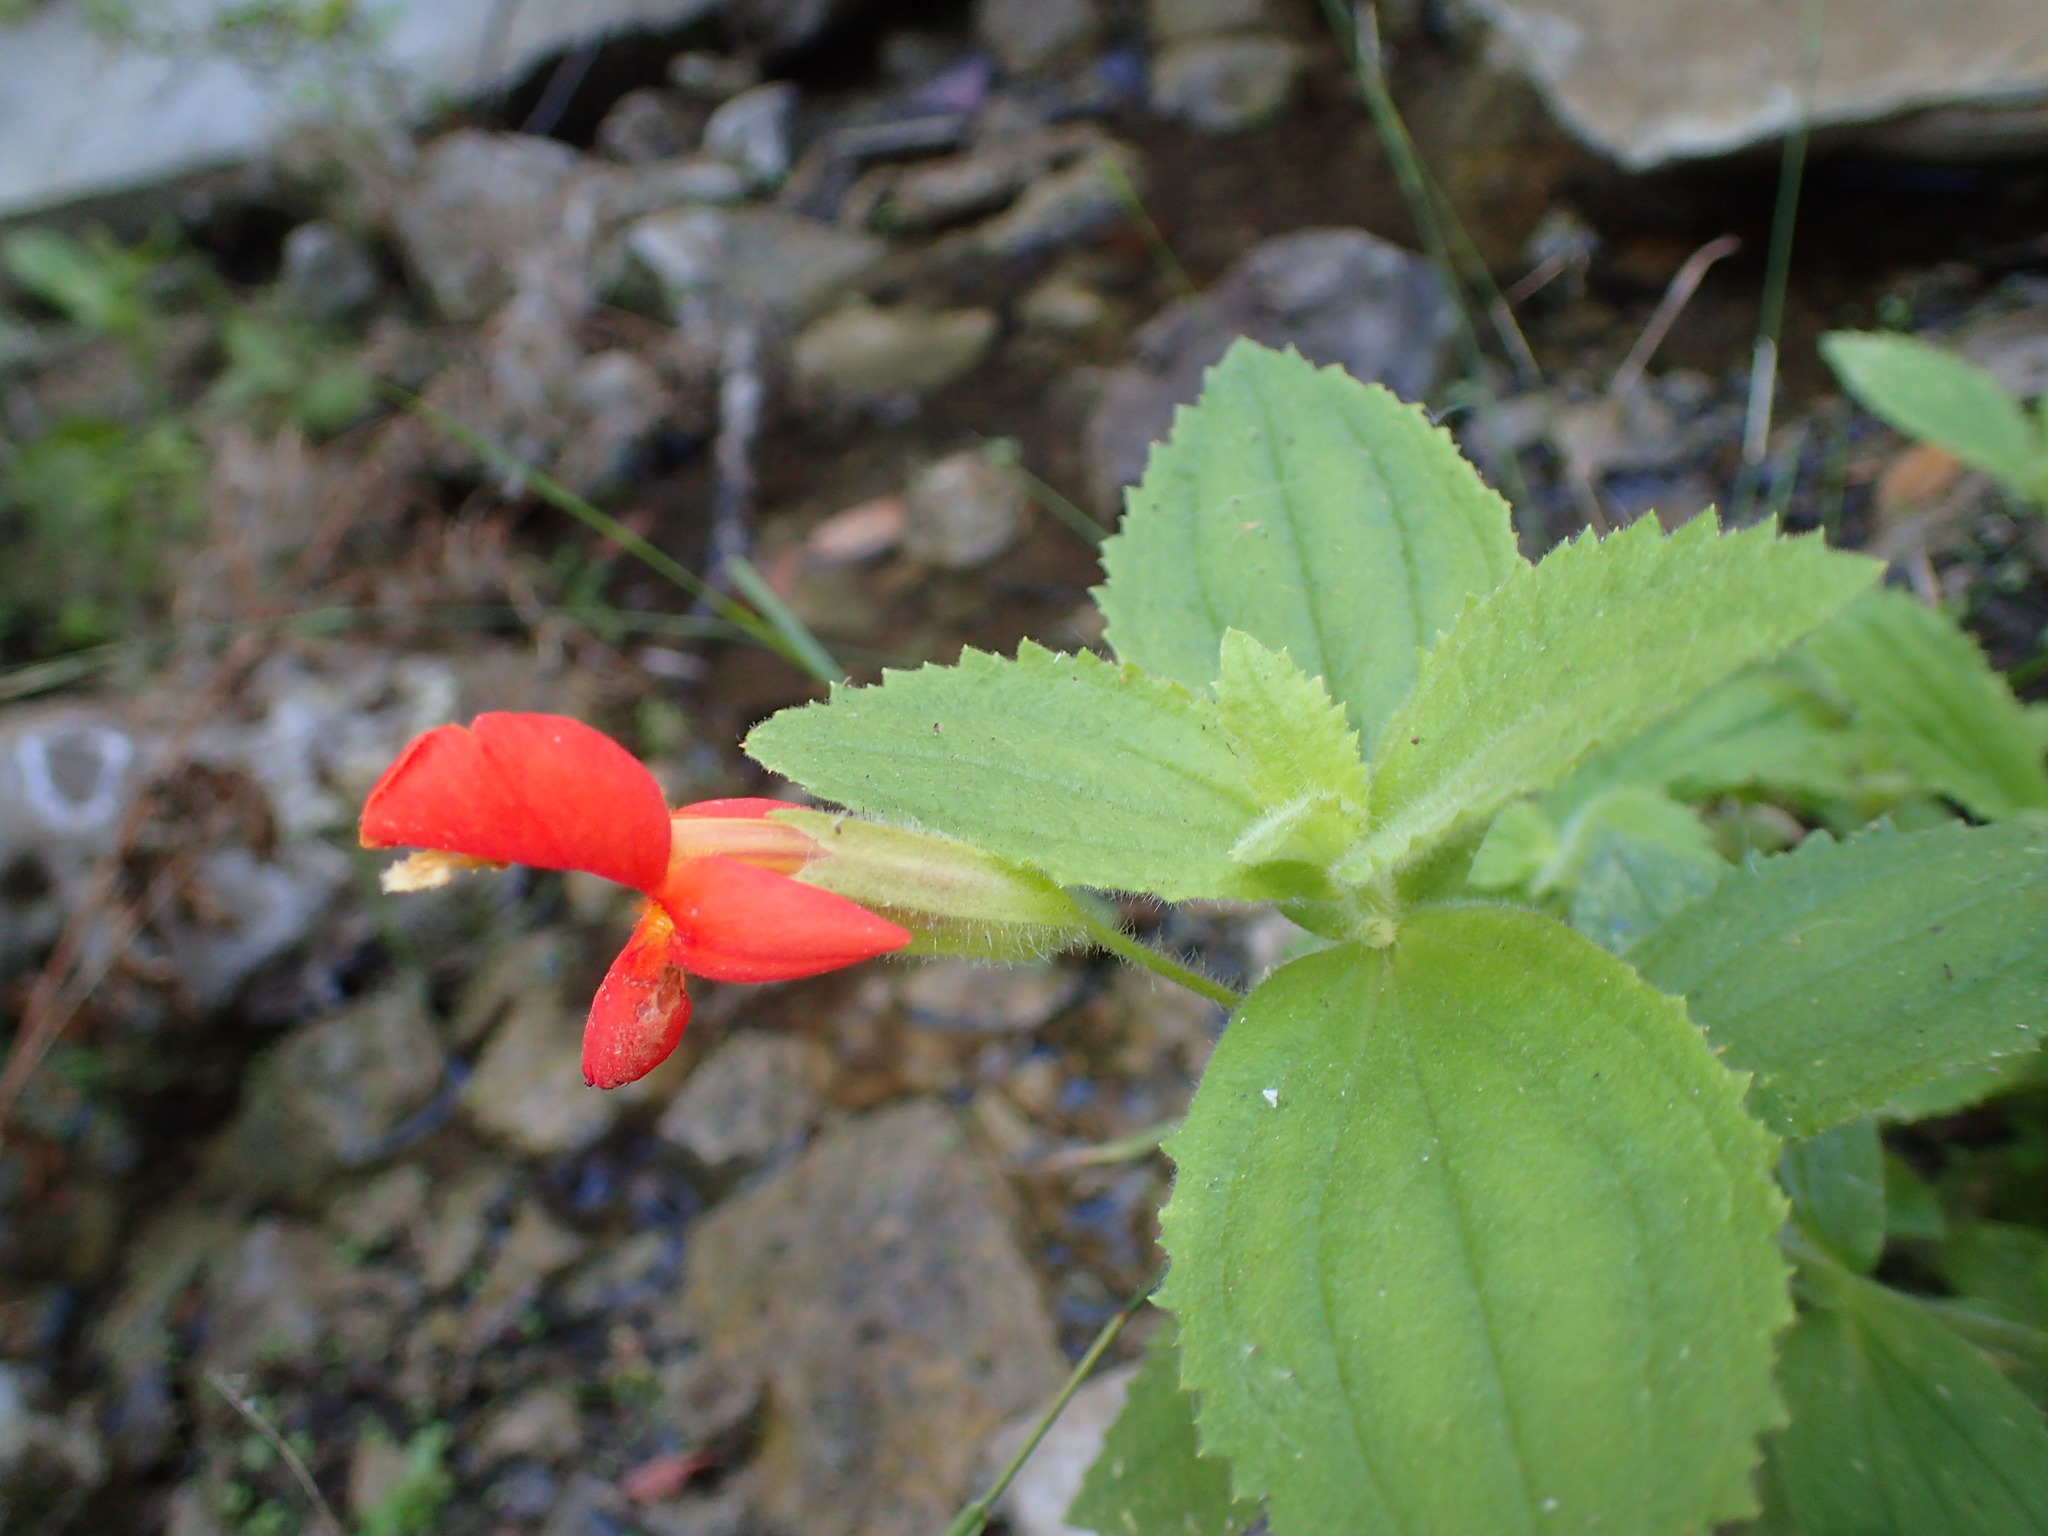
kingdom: Plantae
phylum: Tracheophyta
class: Magnoliopsida
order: Lamiales
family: Phrymaceae
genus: Erythranthe
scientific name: Erythranthe cardinalis
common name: Scarlet monkey-flower
